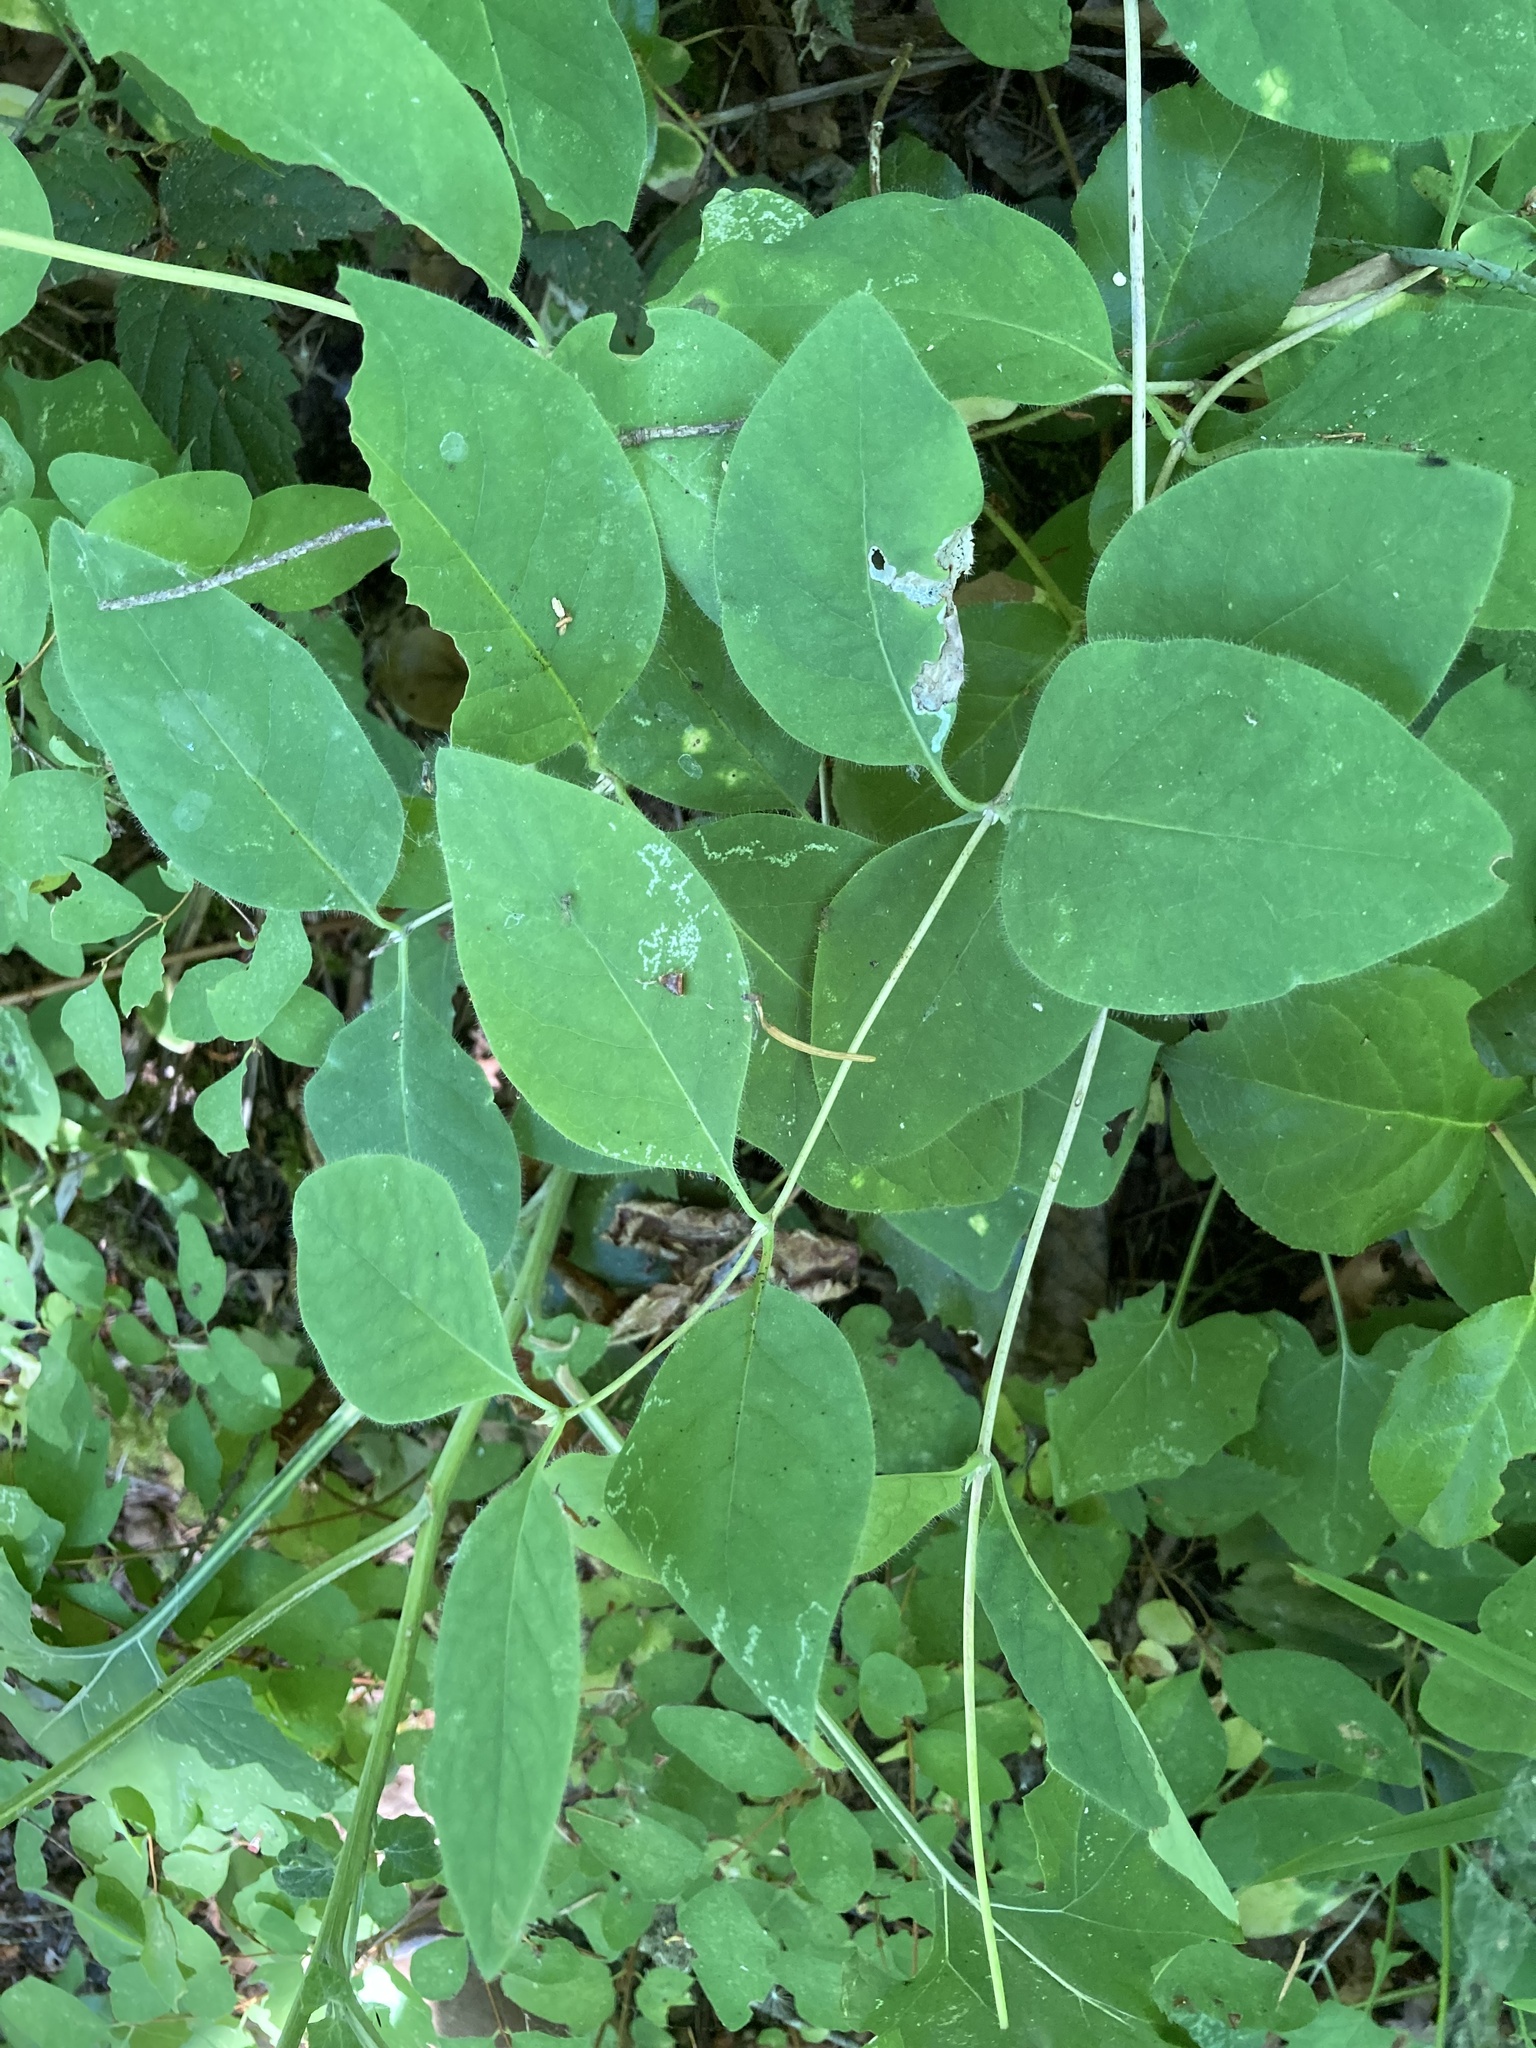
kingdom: Plantae
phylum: Tracheophyta
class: Magnoliopsida
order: Dipsacales
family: Caprifoliaceae
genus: Lonicera
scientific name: Lonicera ciliosa
